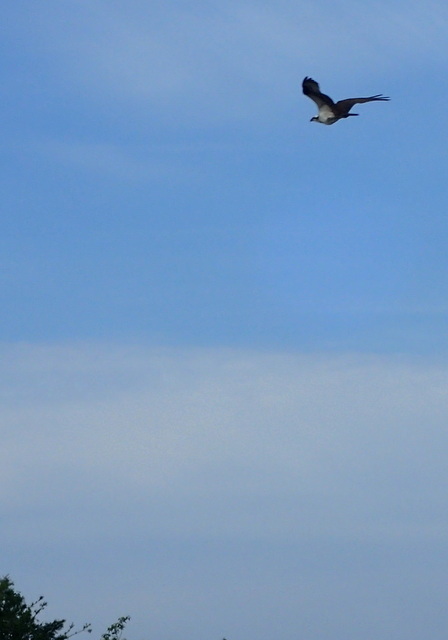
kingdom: Animalia
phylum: Chordata
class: Aves
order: Accipitriformes
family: Pandionidae
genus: Pandion
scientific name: Pandion haliaetus
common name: Osprey
